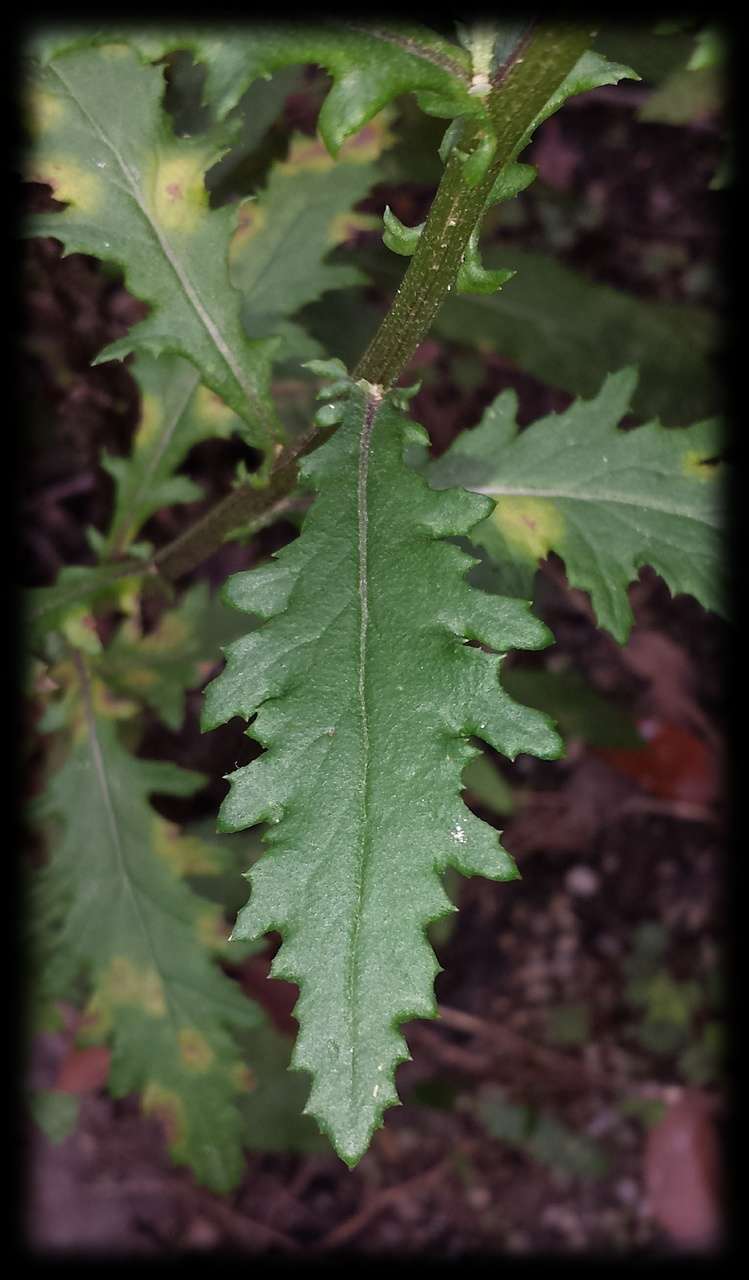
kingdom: Plantae
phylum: Tracheophyta
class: Magnoliopsida
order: Asterales
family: Asteraceae
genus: Senecio
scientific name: Senecio biserratus
